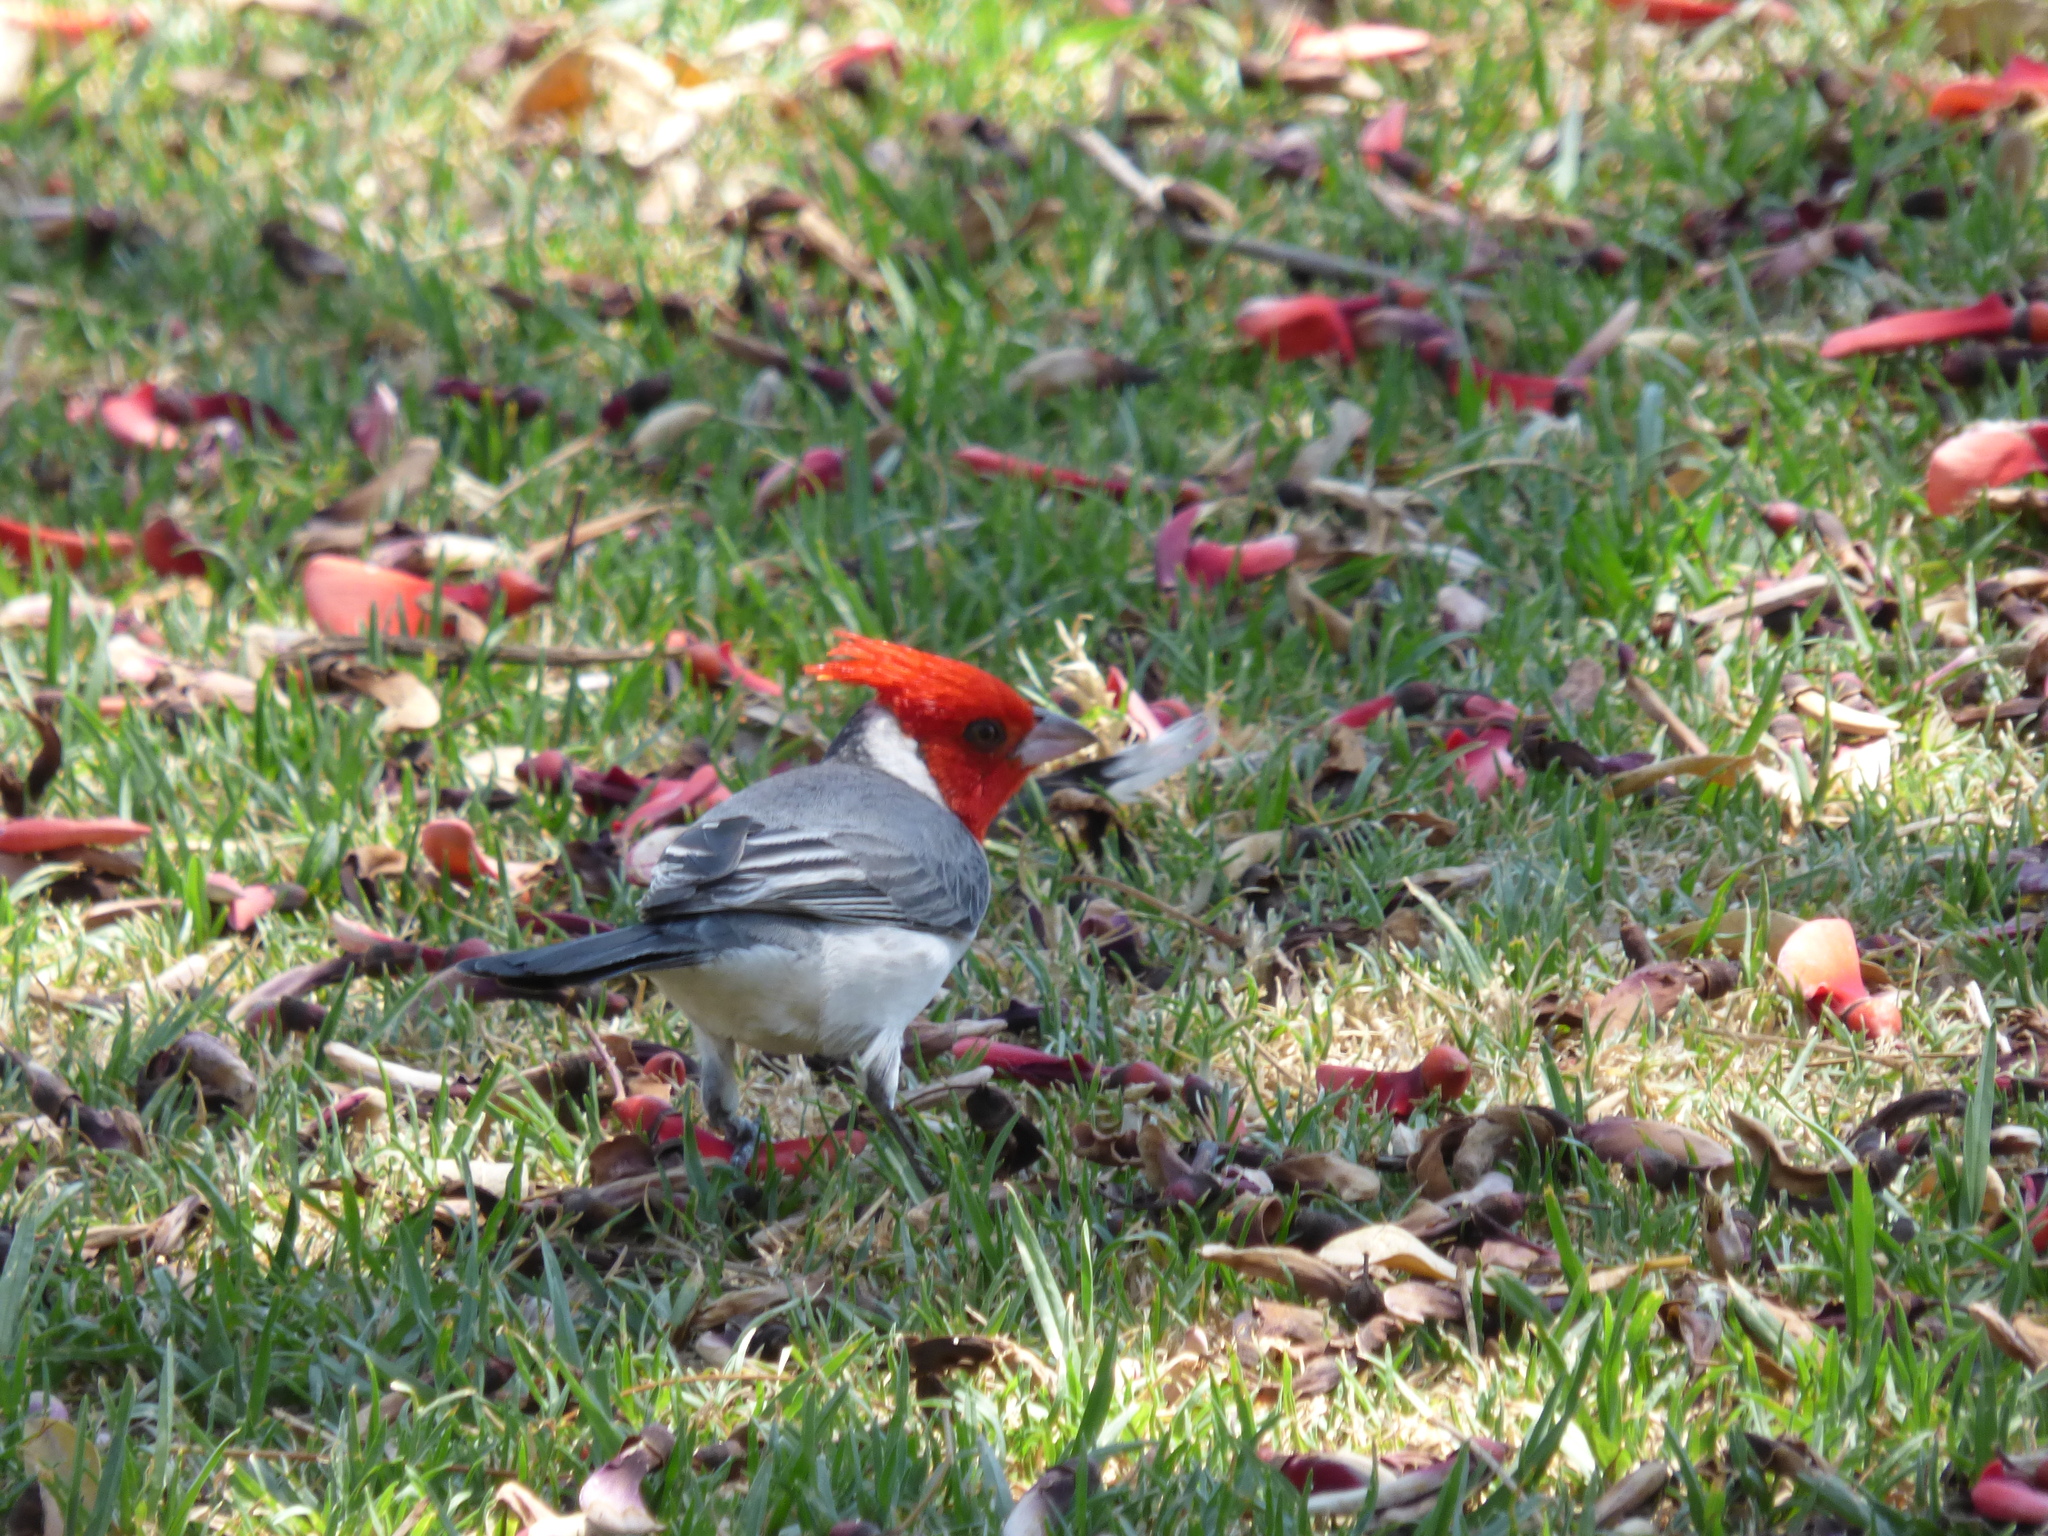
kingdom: Animalia
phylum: Chordata
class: Aves
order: Passeriformes
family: Thraupidae
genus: Paroaria
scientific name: Paroaria coronata
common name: Red-crested cardinal
